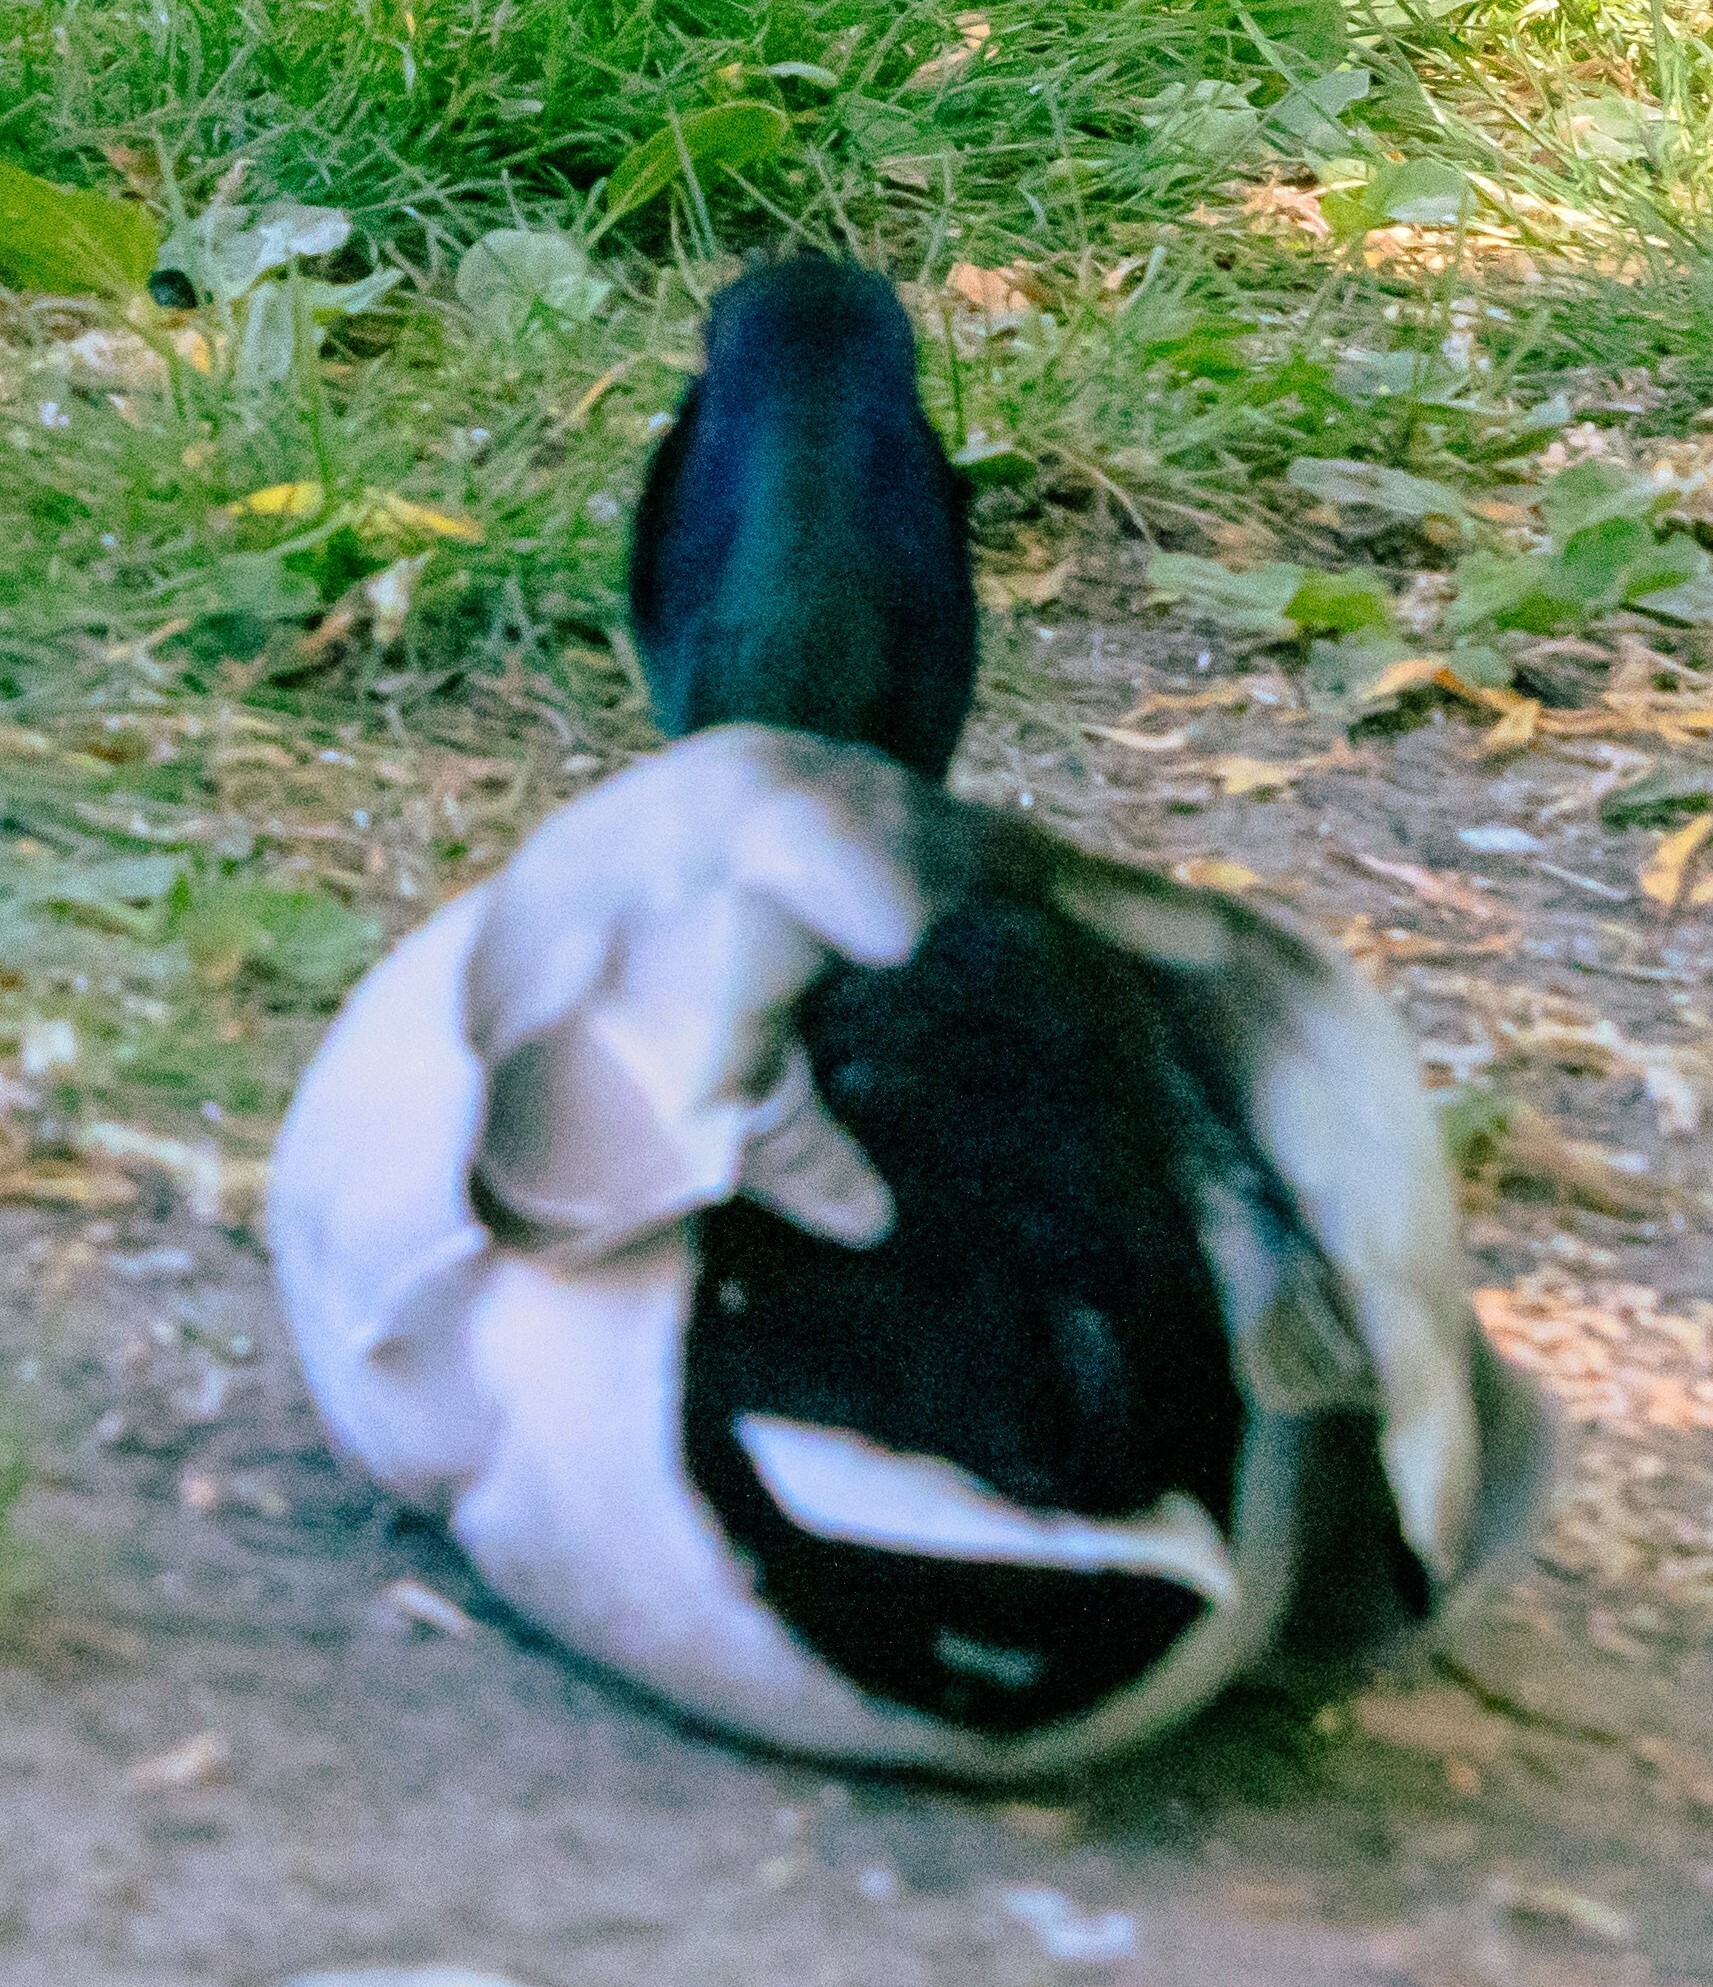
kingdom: Animalia
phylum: Chordata
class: Aves
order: Anseriformes
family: Anatidae
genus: Anas
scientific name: Anas platyrhynchos
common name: Mallard
